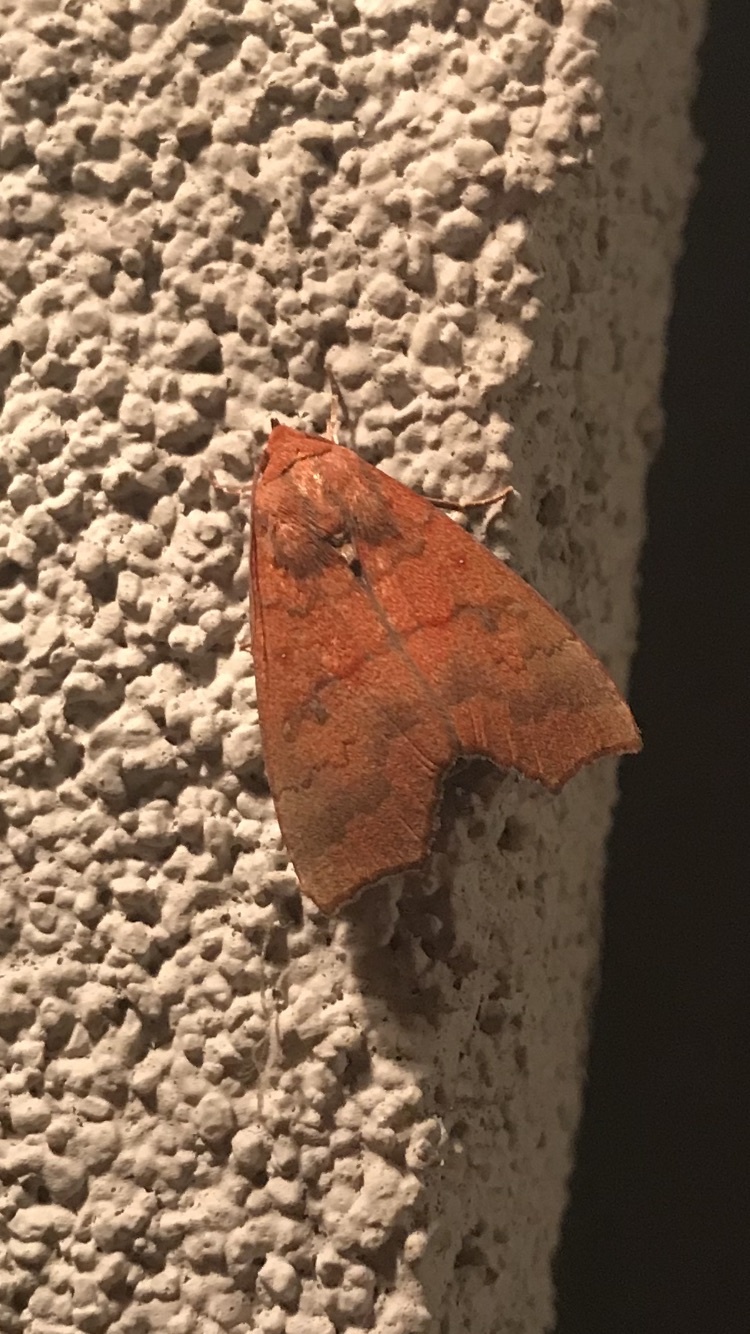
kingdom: Animalia
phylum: Arthropoda
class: Insecta
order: Lepidoptera
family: Erebidae
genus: Rusicada
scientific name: Rusicada privata
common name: Hibiscus leaf caterpillar moth
